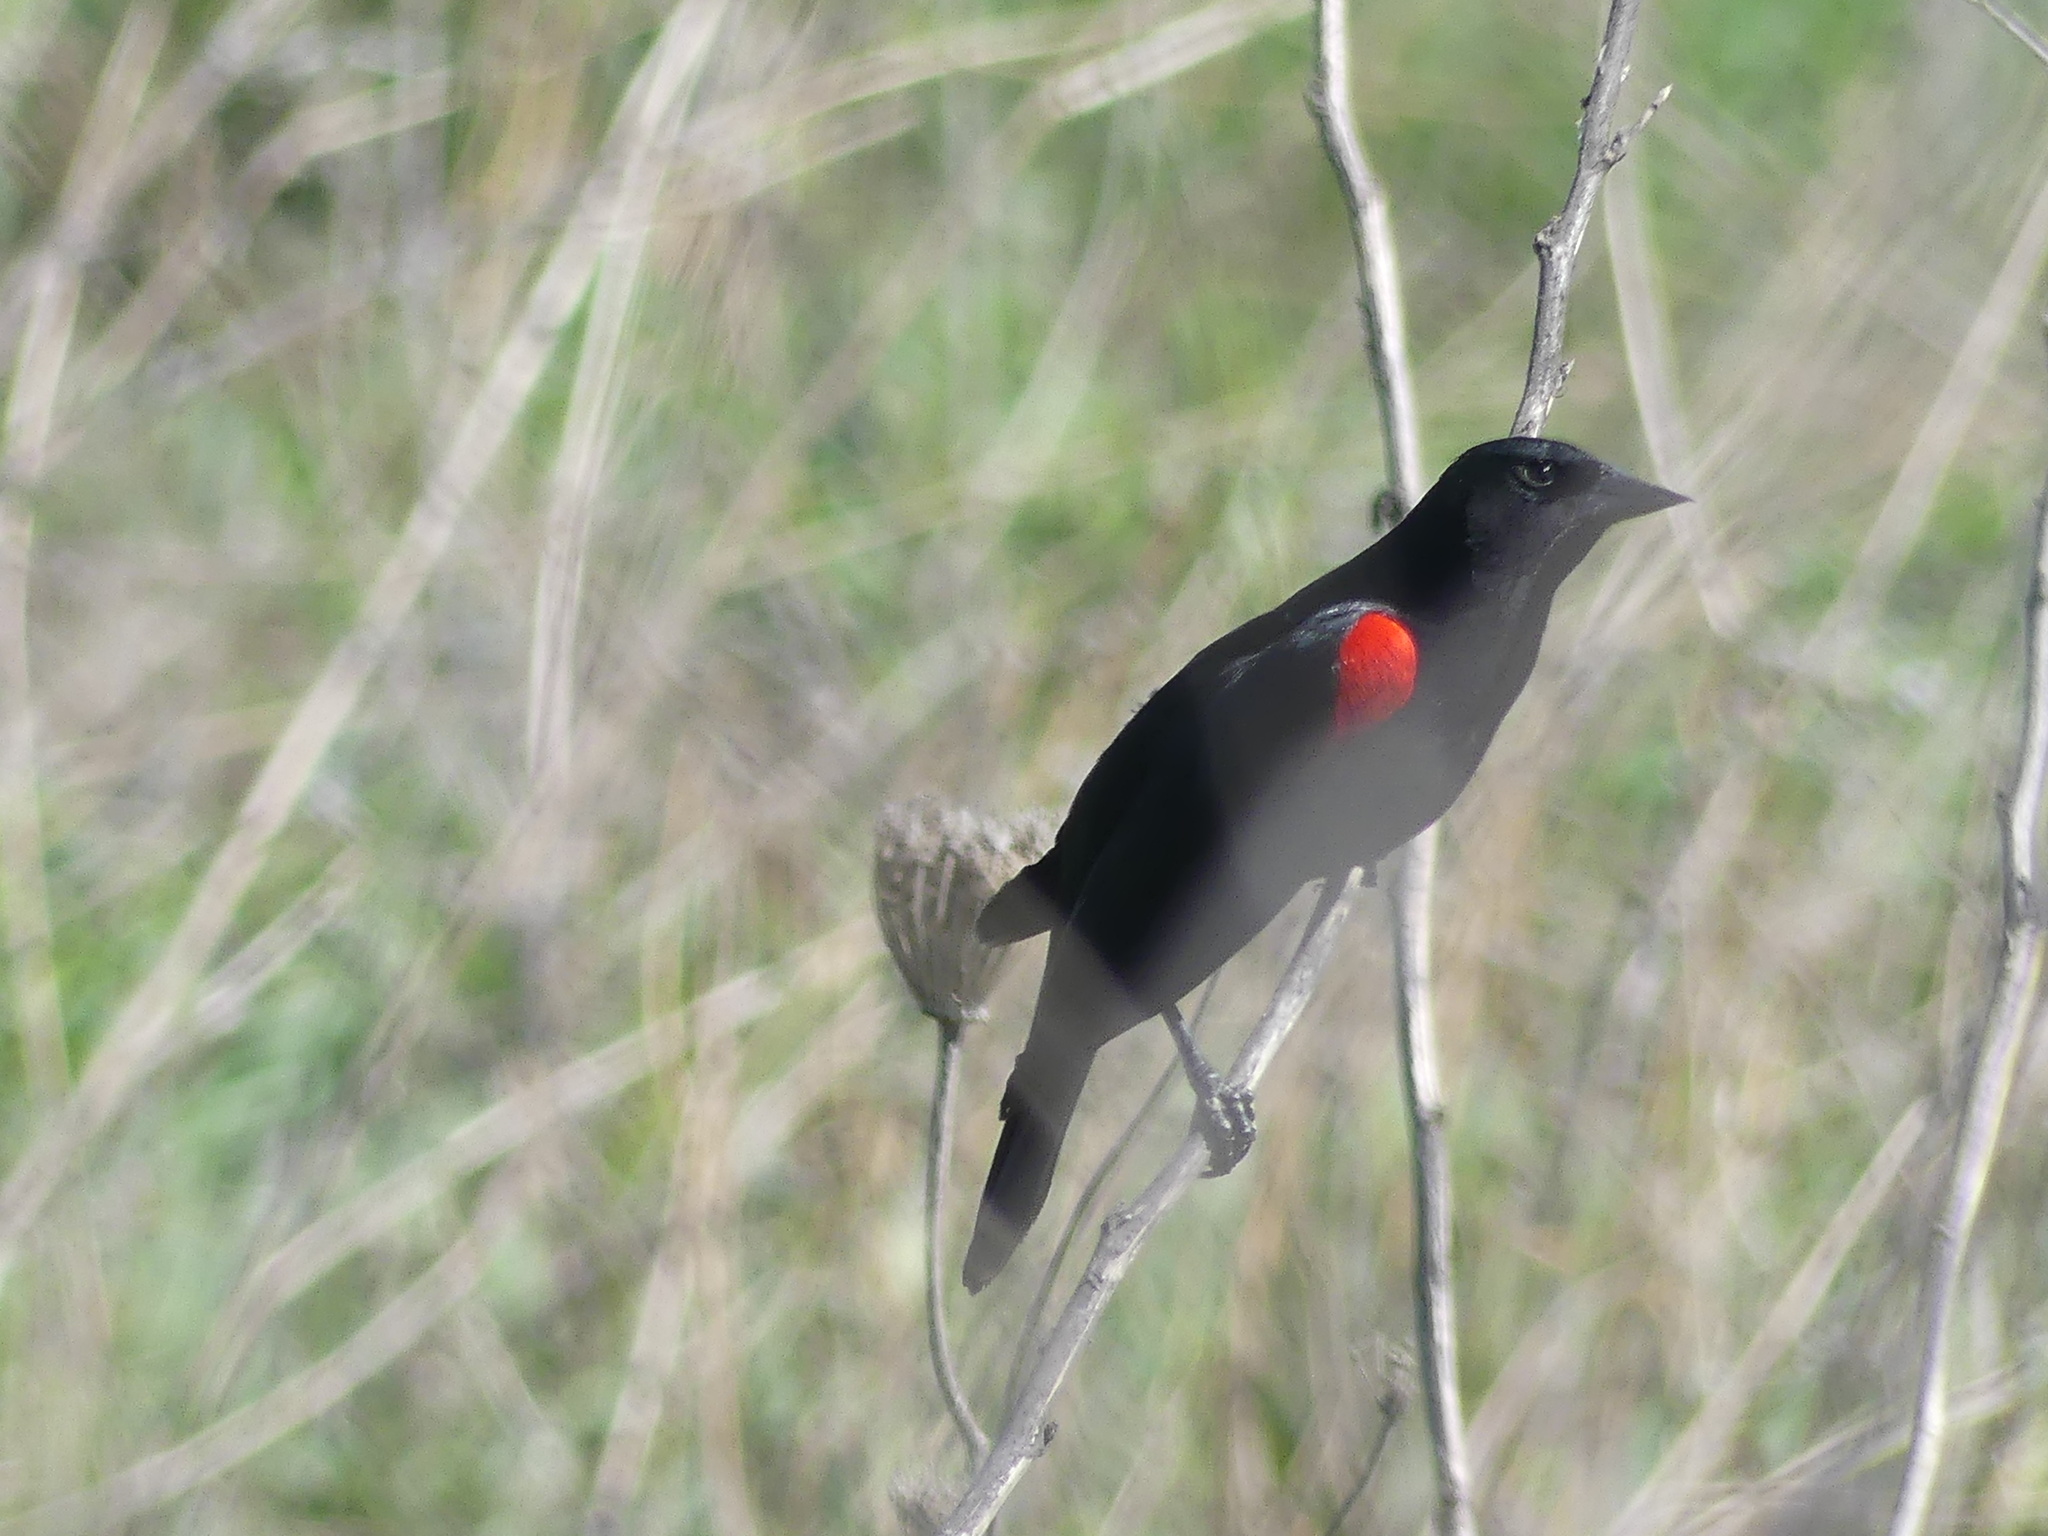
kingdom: Animalia
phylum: Chordata
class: Aves
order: Passeriformes
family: Icteridae
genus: Agelaius
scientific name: Agelaius phoeniceus
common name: Red-winged blackbird
